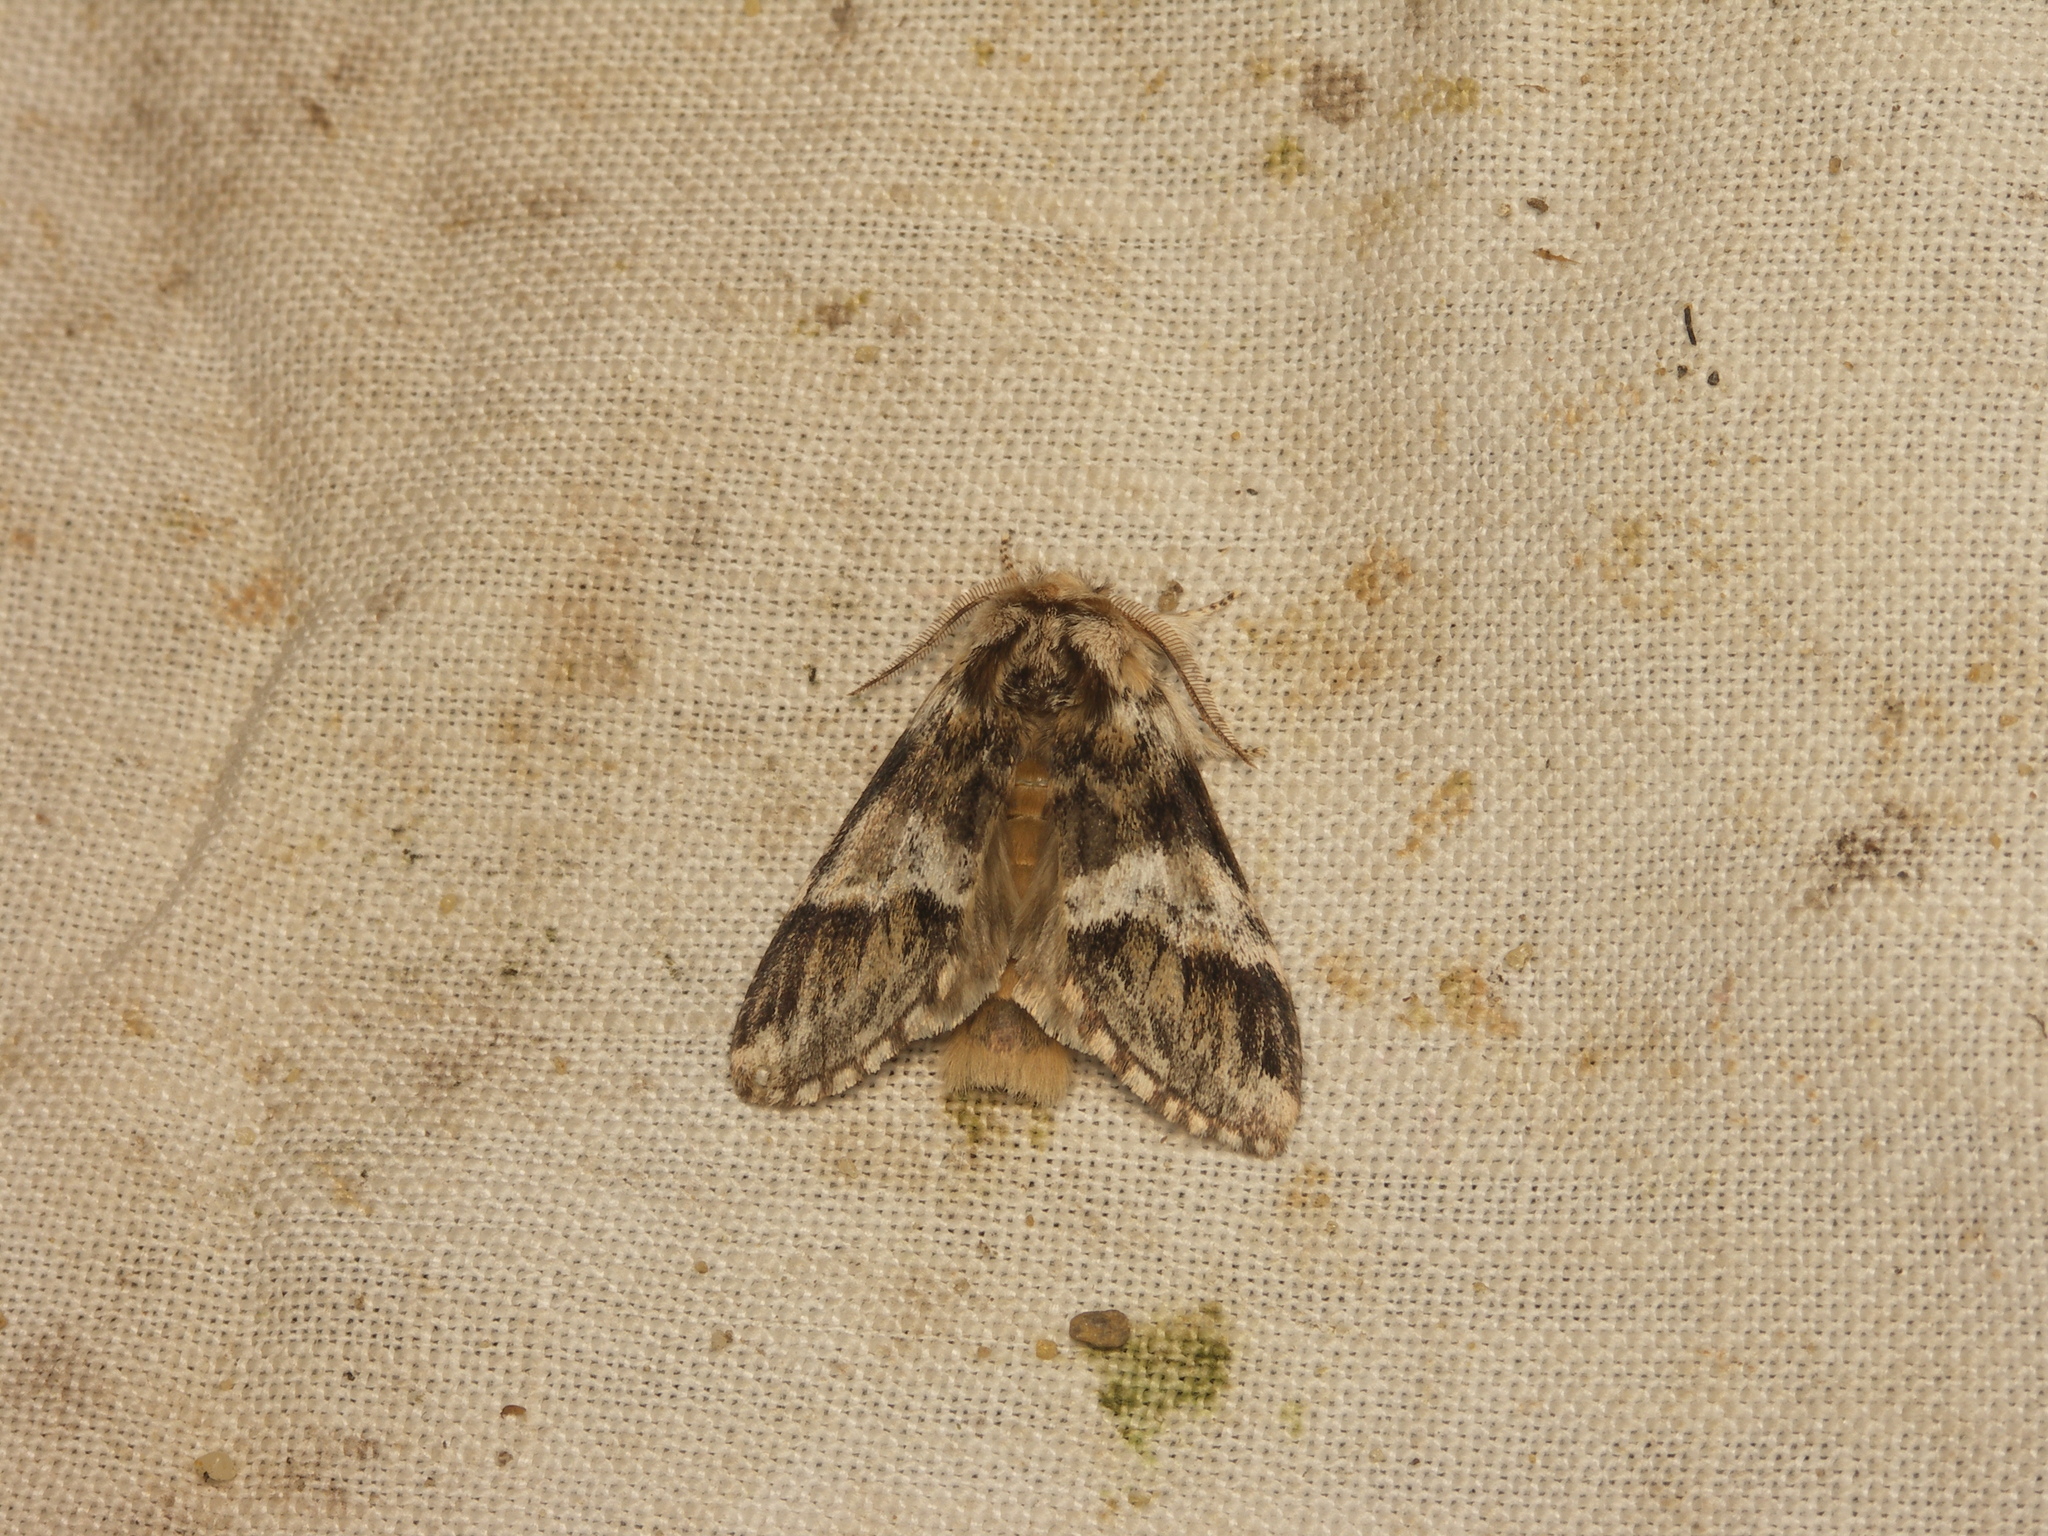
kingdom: Animalia
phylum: Arthropoda
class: Insecta
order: Lepidoptera
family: Notodontidae
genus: Drymonia
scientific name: Drymonia dodonaea
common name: Marbled brown
